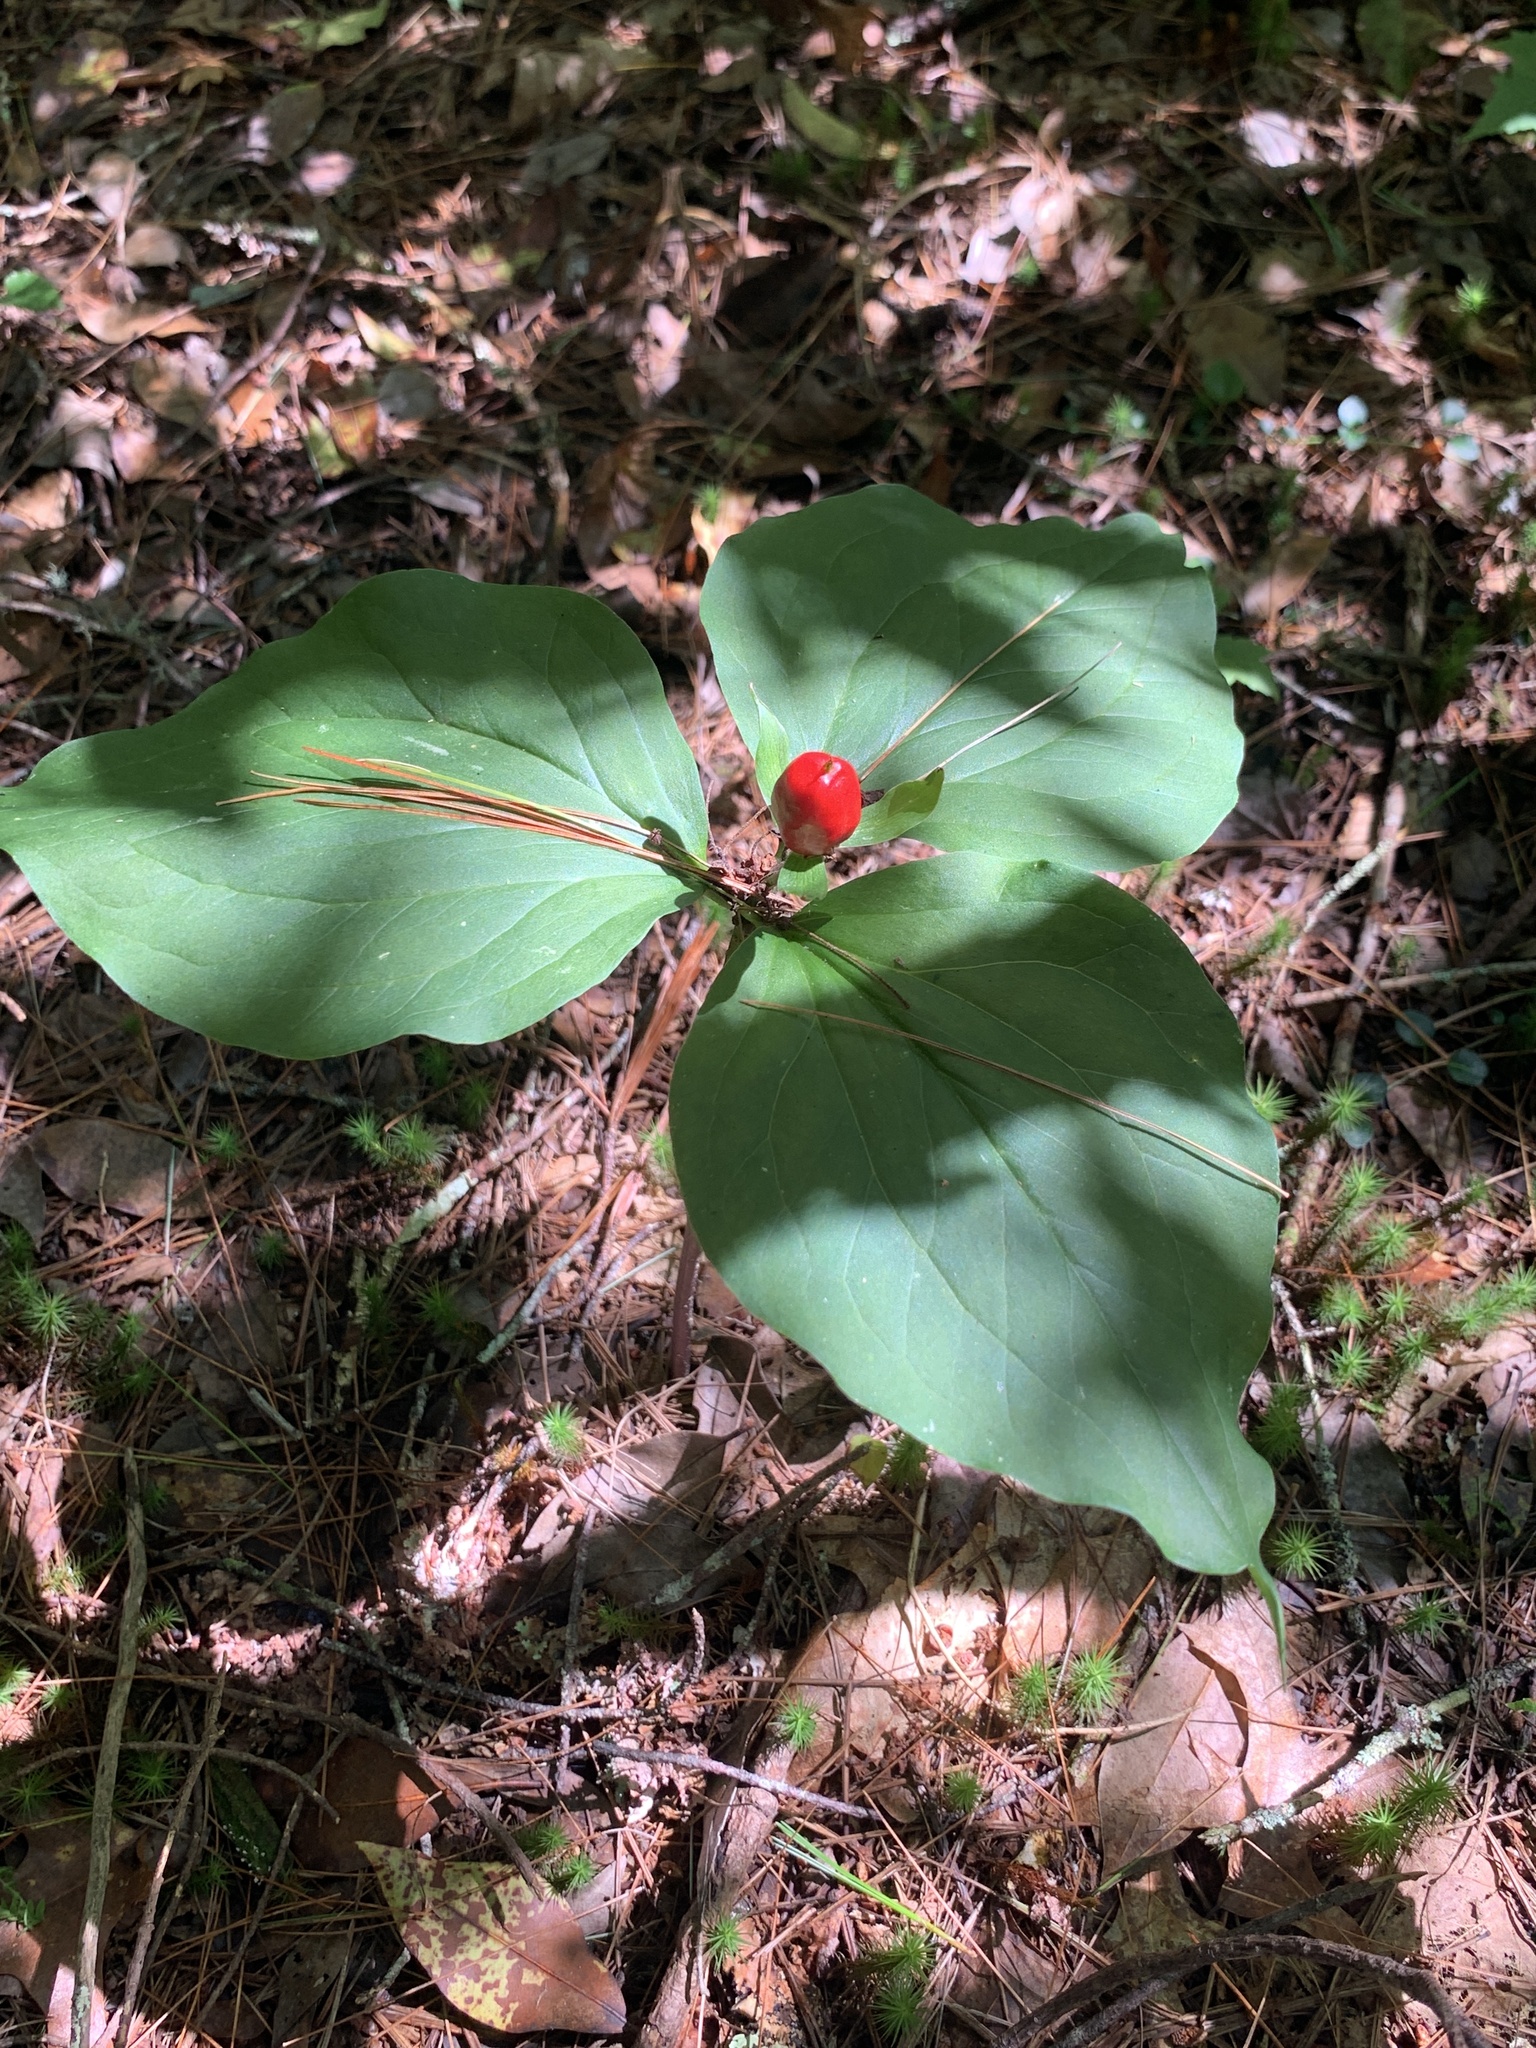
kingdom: Plantae
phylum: Tracheophyta
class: Liliopsida
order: Liliales
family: Melanthiaceae
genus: Trillium
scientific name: Trillium undulatum
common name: Paint trillium
